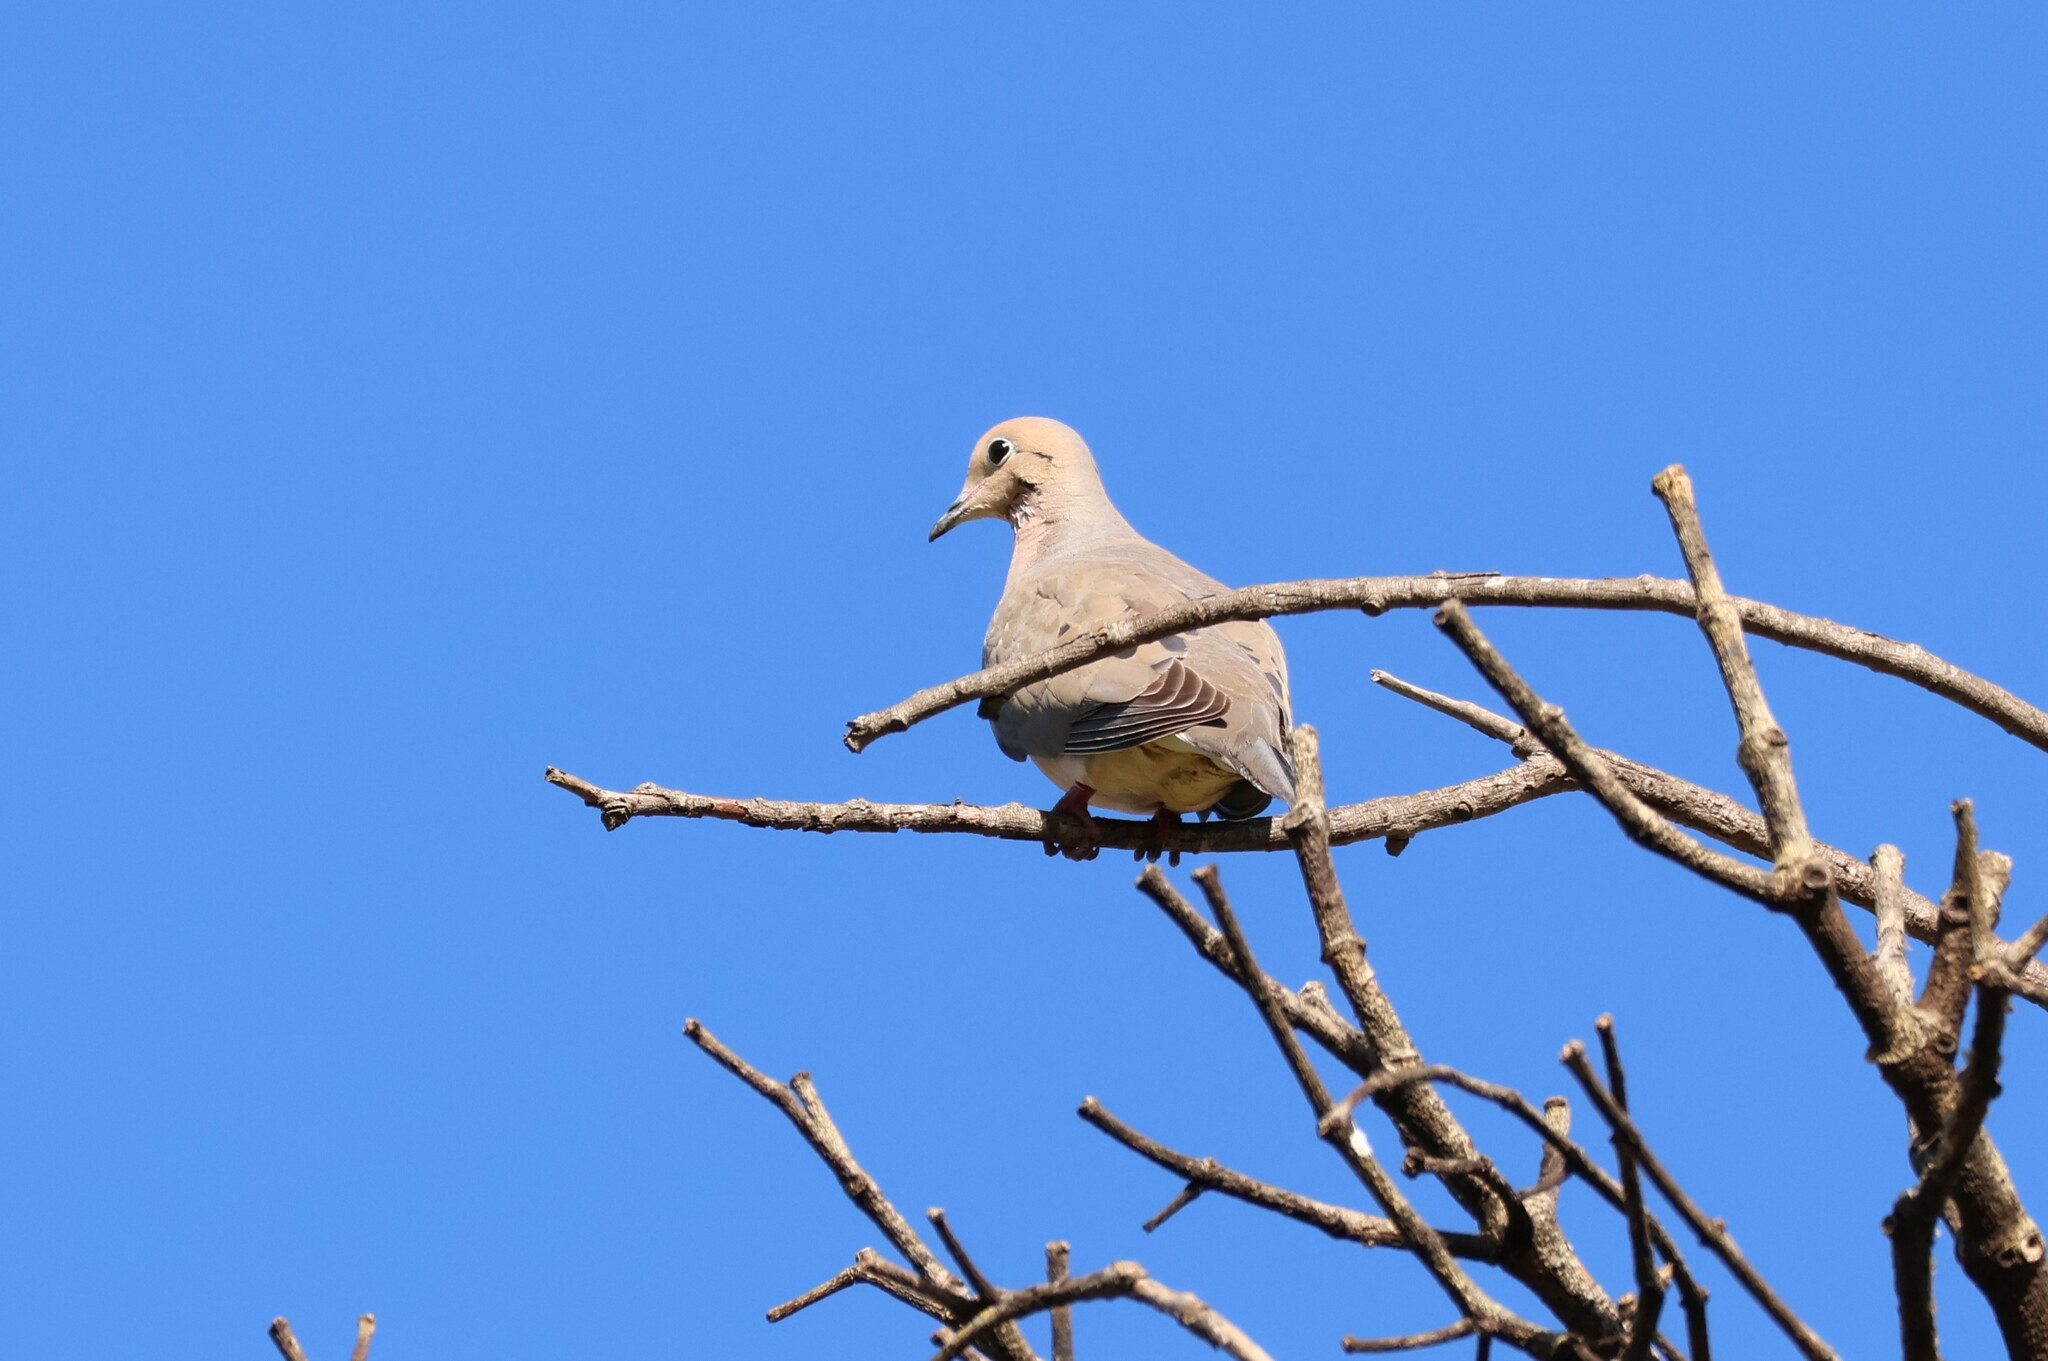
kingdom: Animalia
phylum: Chordata
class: Aves
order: Columbiformes
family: Columbidae
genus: Zenaida
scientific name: Zenaida macroura
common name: Mourning dove
